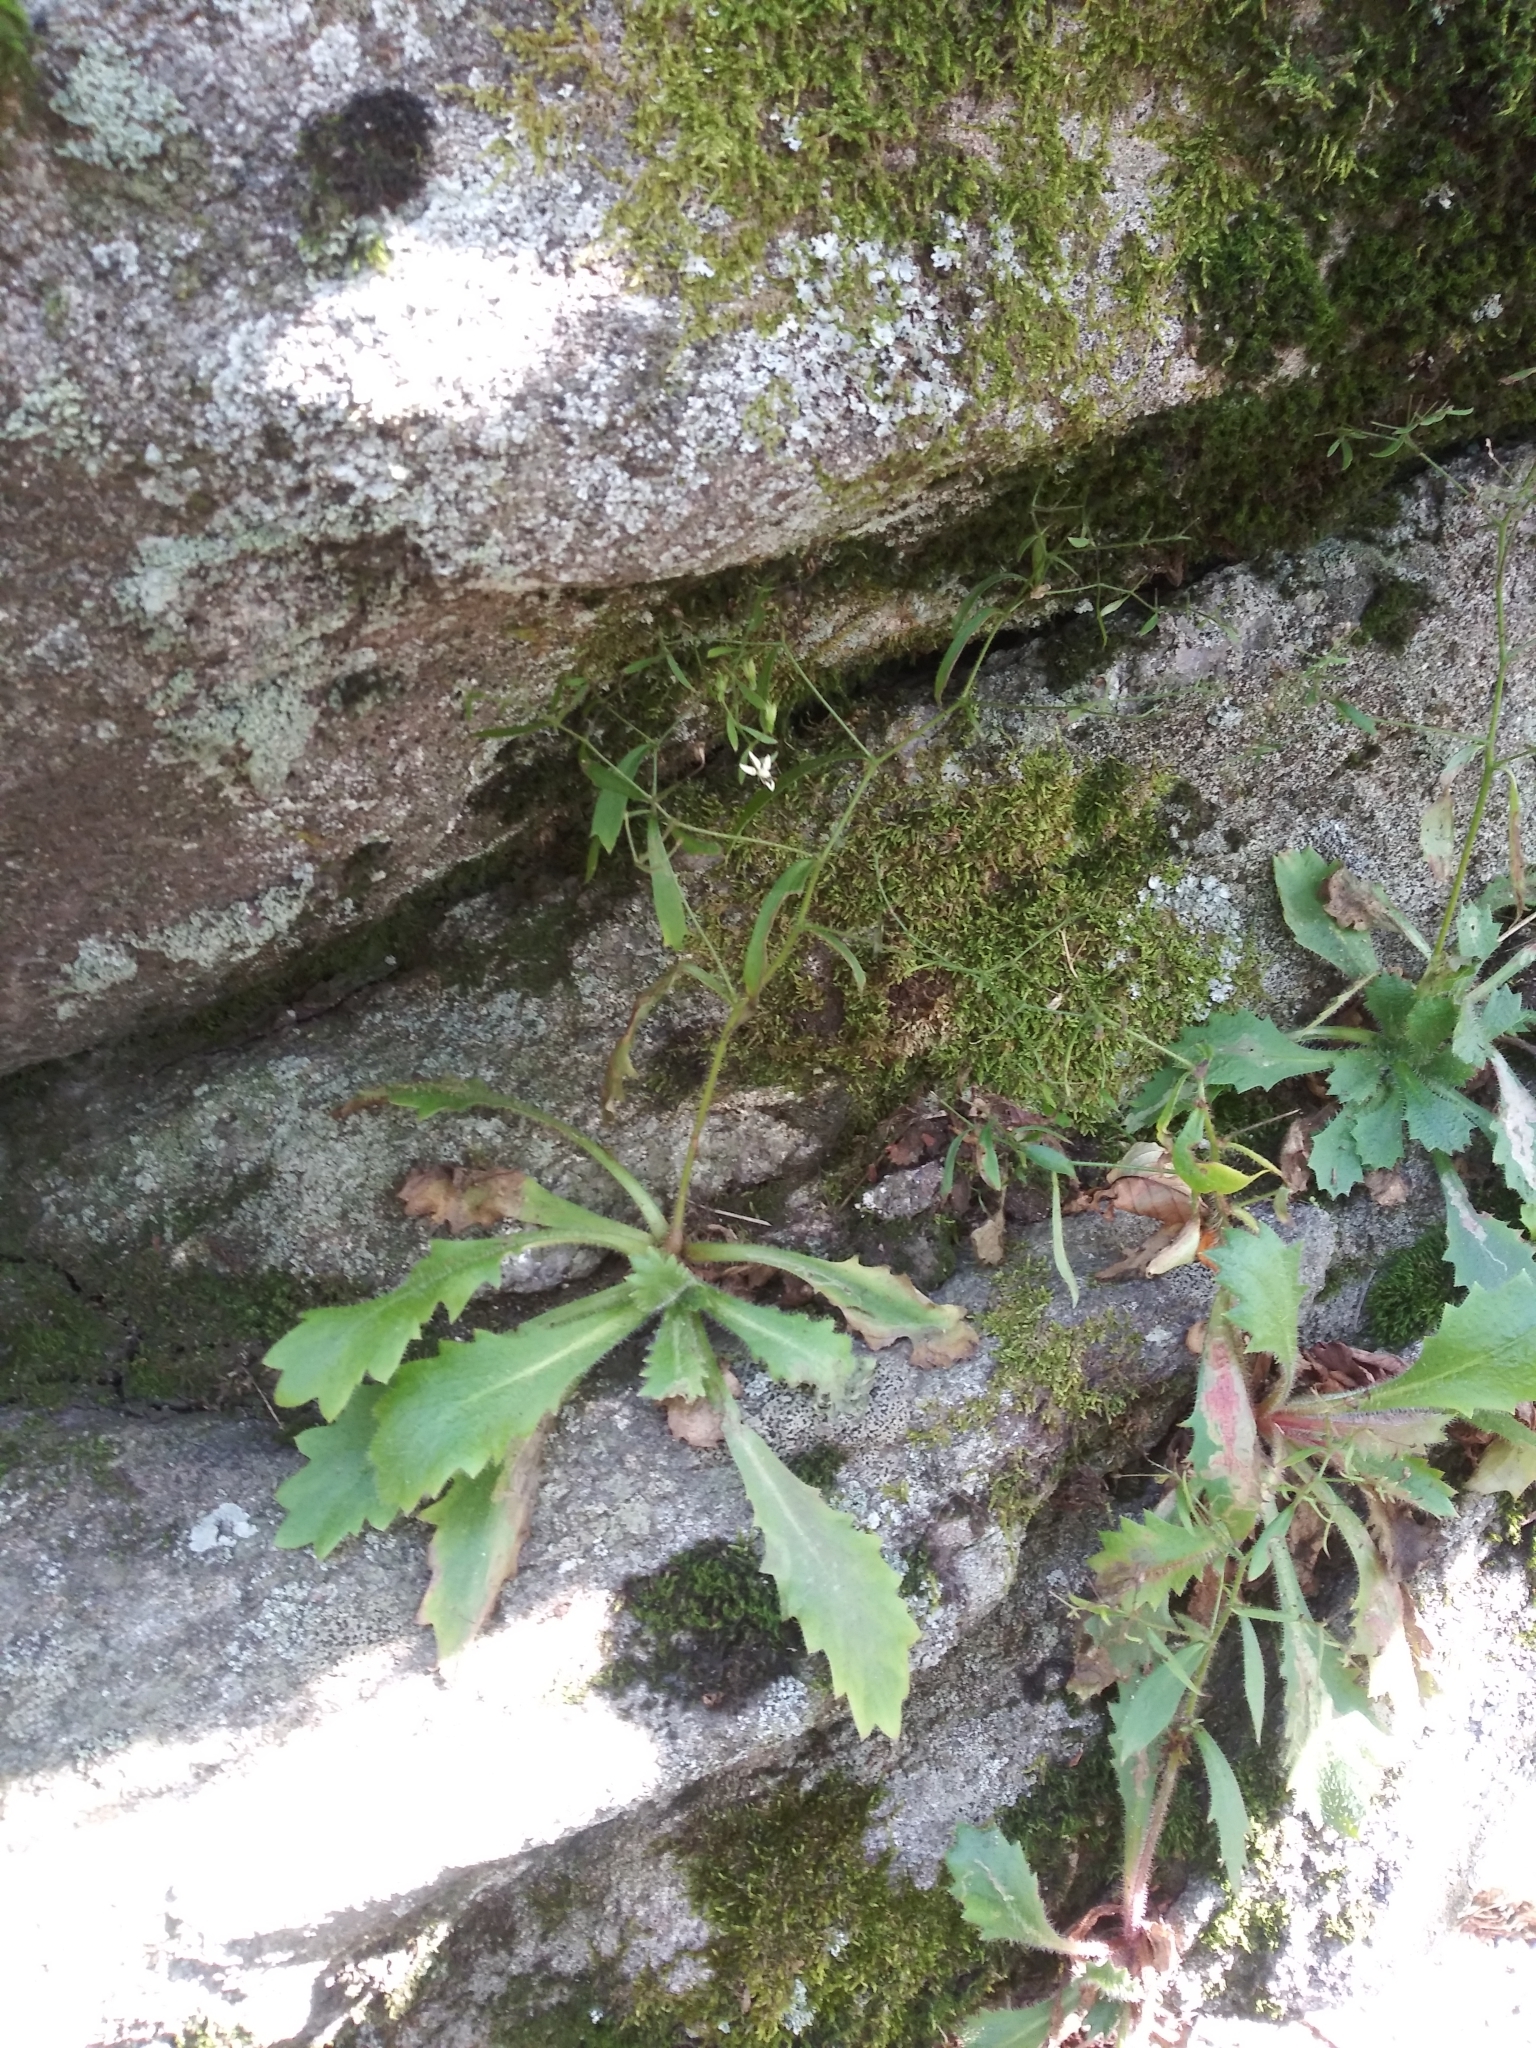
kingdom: Plantae
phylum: Tracheophyta
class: Magnoliopsida
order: Saxifragales
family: Saxifragaceae
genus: Micranthes
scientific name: Micranthes petiolaris
